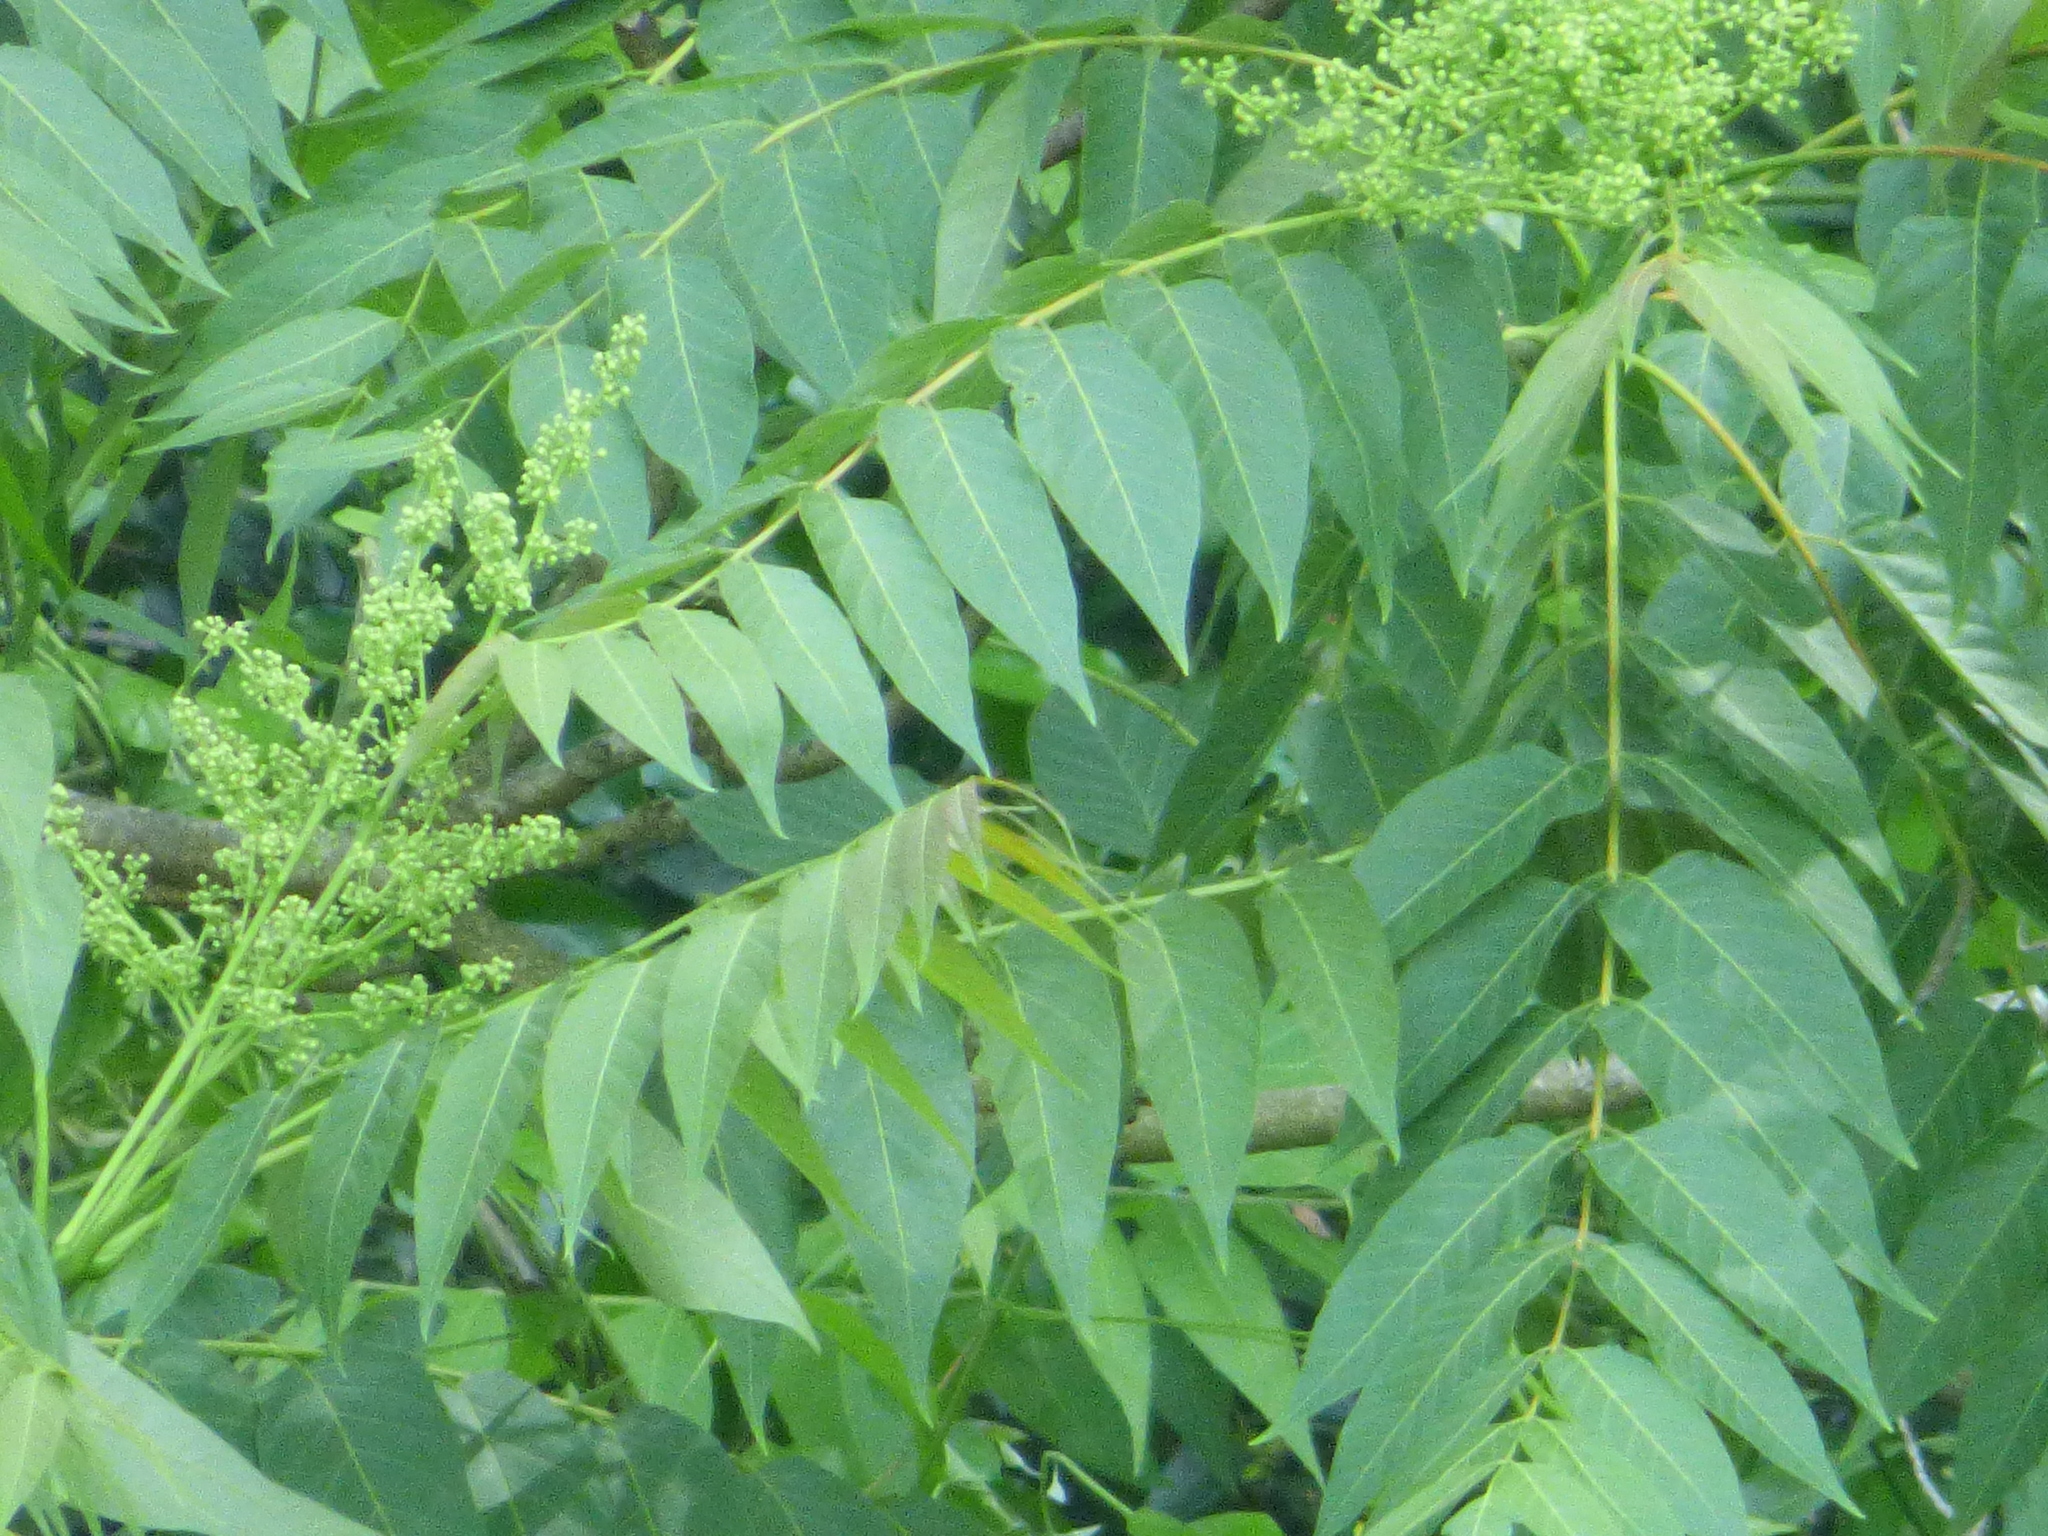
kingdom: Plantae
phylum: Tracheophyta
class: Magnoliopsida
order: Sapindales
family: Simaroubaceae
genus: Ailanthus
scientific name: Ailanthus altissima
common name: Tree-of-heaven
